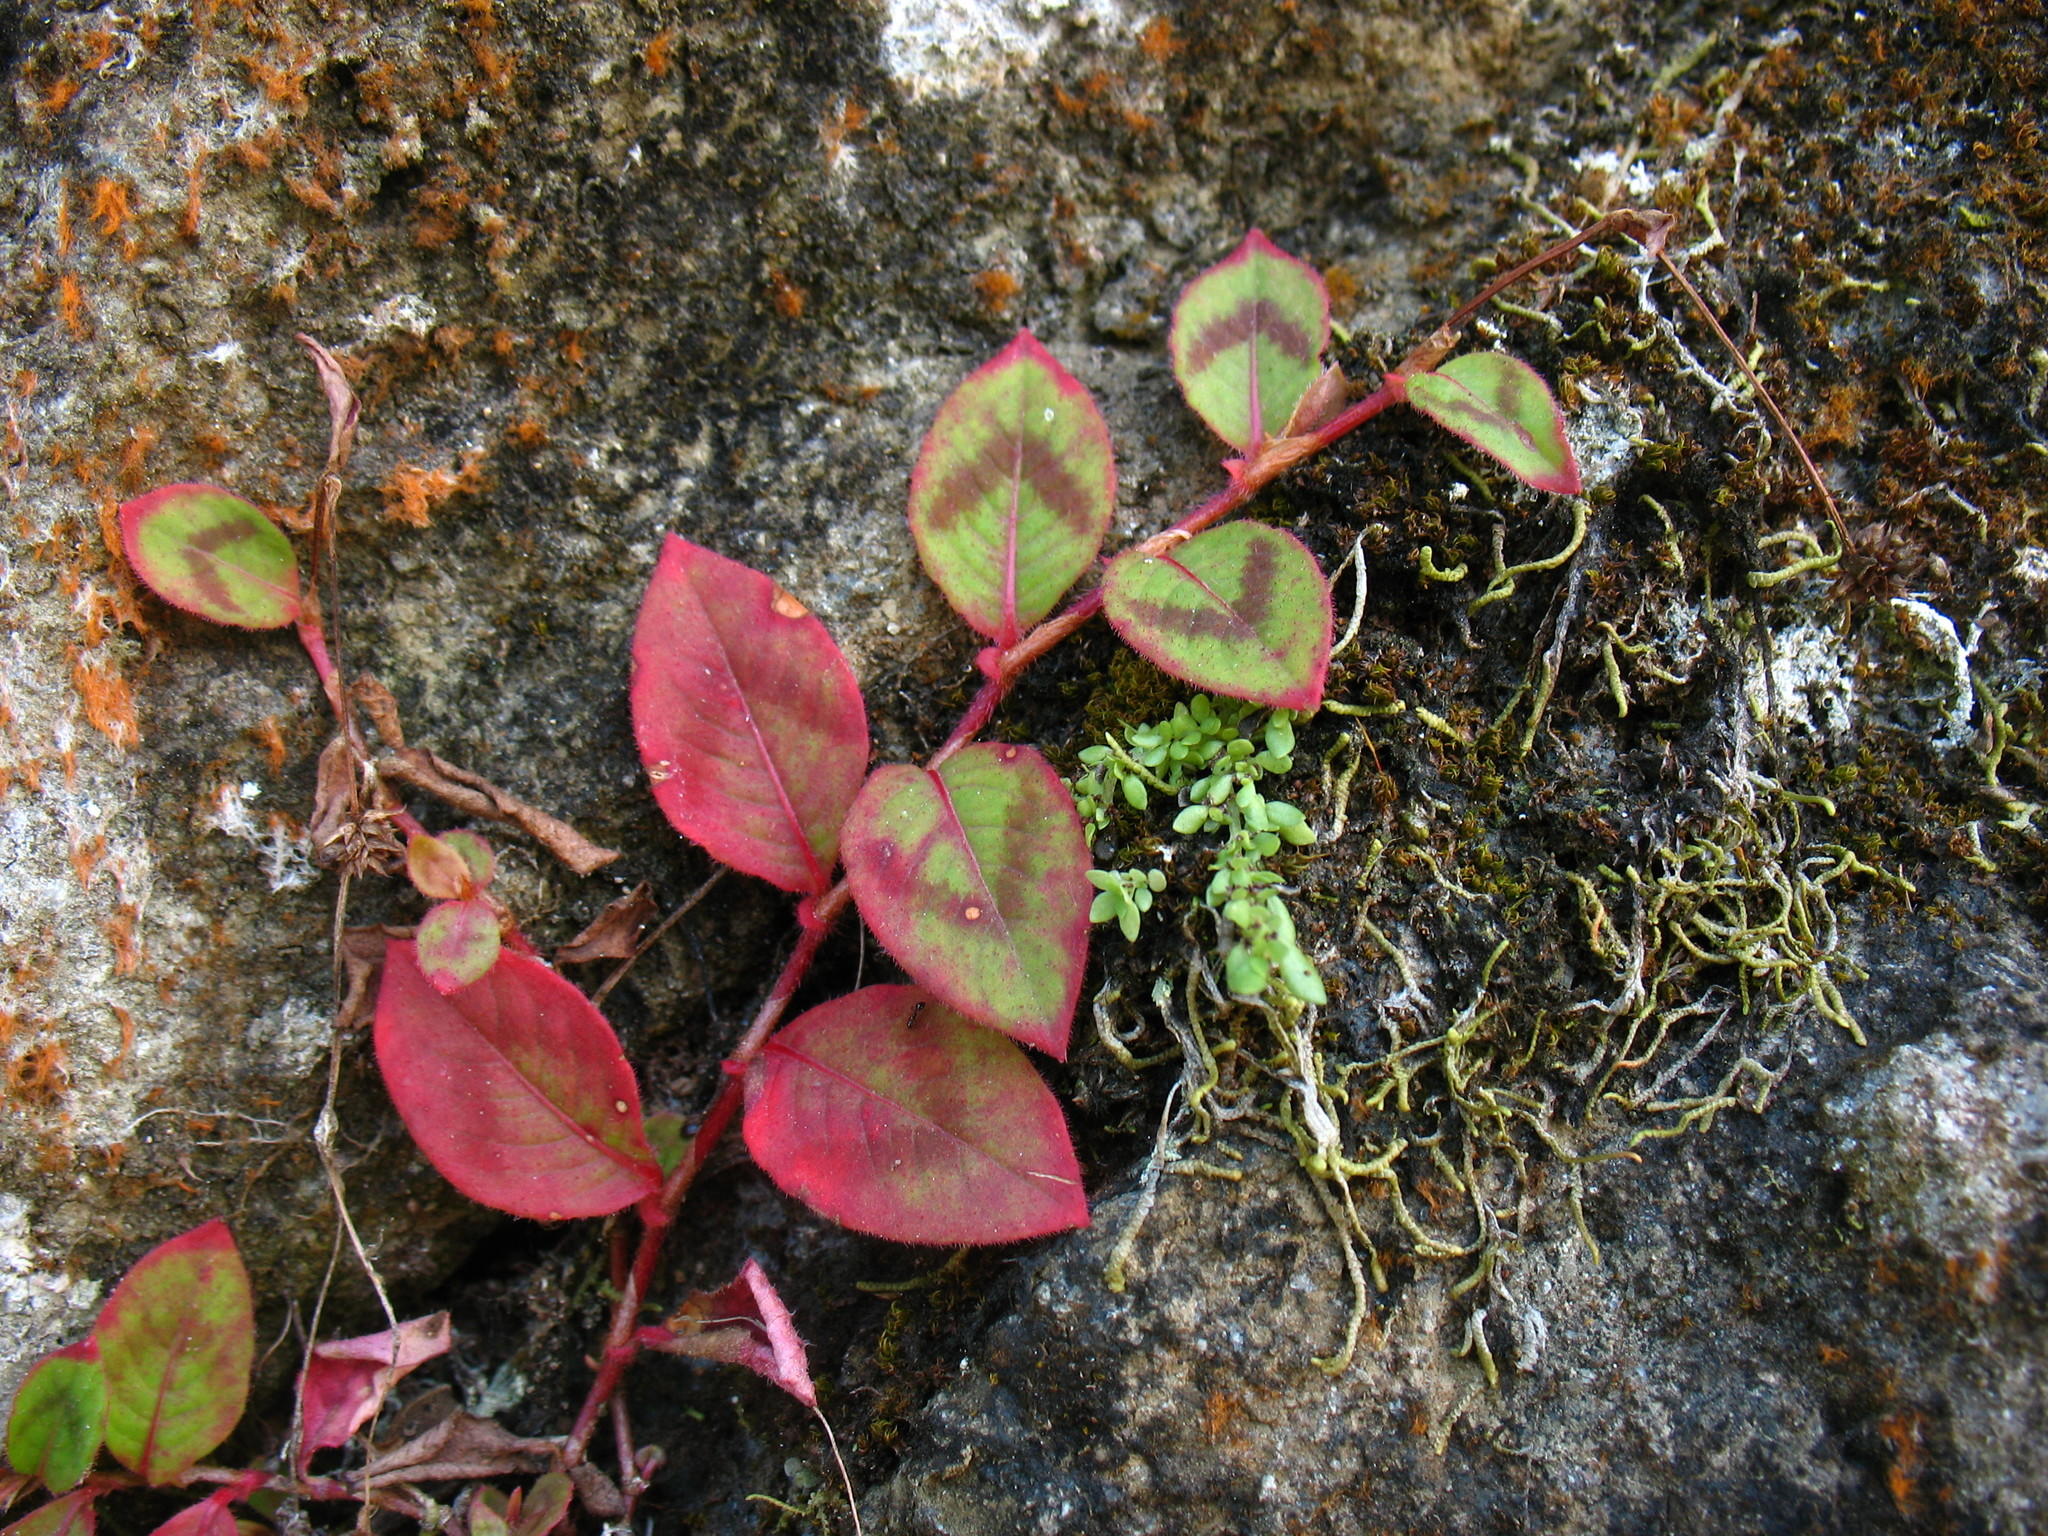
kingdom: Plantae
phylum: Tracheophyta
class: Magnoliopsida
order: Caryophyllales
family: Polygonaceae
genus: Persicaria
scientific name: Persicaria capitata
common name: Pinkhead smartweed
